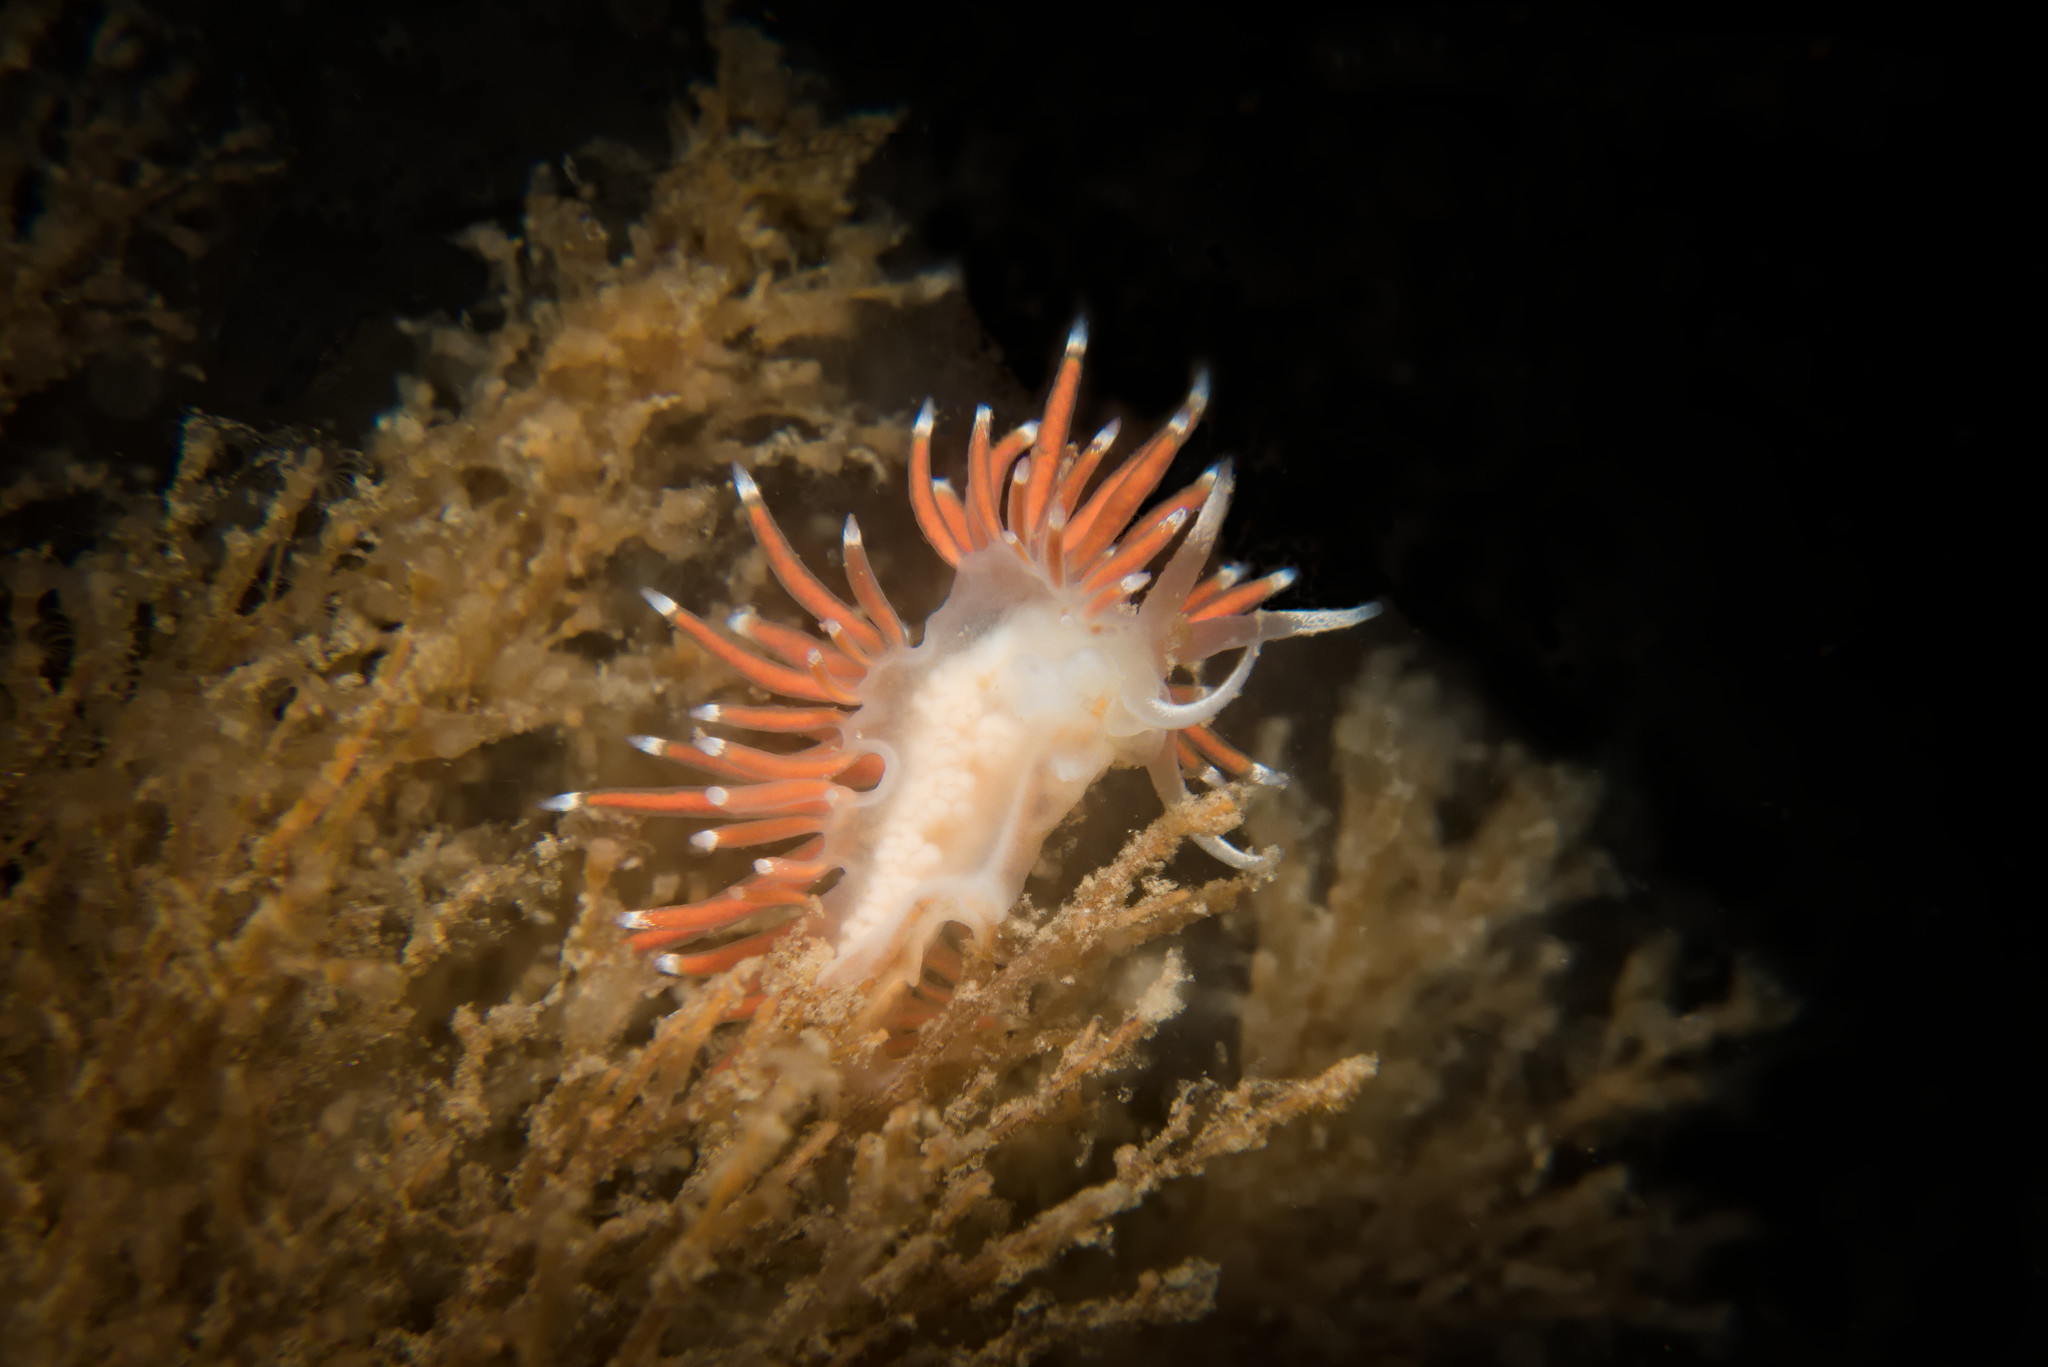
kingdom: Animalia
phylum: Mollusca
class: Gastropoda
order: Nudibranchia
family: Coryphellidae
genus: Coryphella
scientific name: Coryphella gracilis
